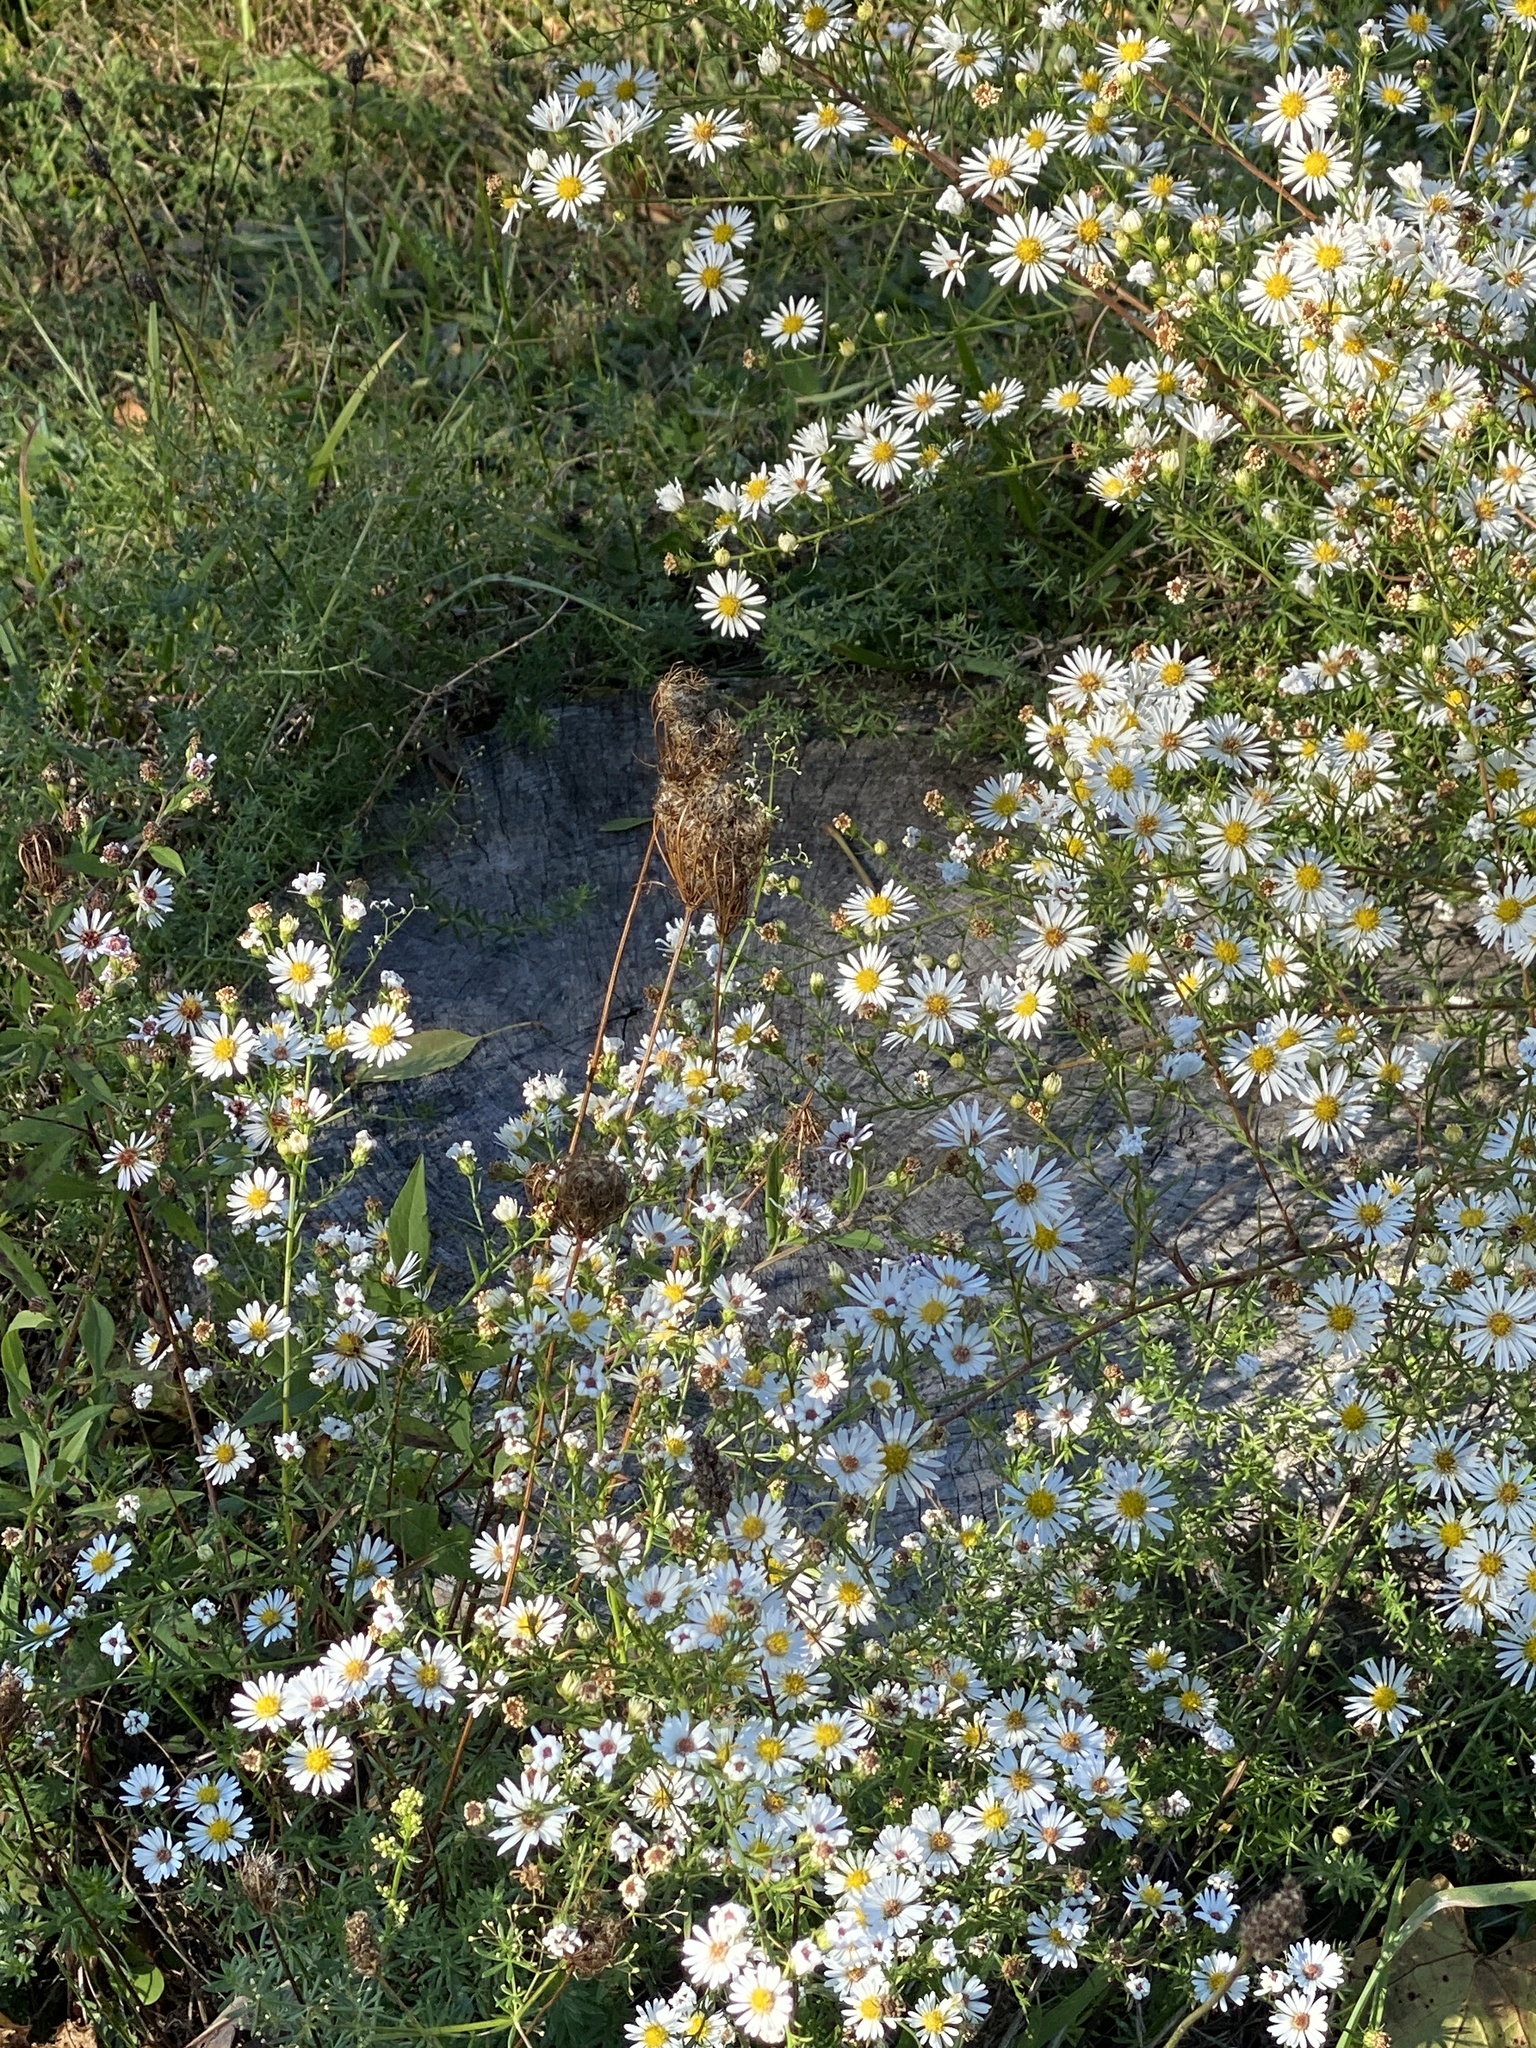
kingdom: Plantae
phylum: Tracheophyta
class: Magnoliopsida
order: Asterales
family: Asteraceae
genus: Symphyotrichum
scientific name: Symphyotrichum pilosum
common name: Awl aster
